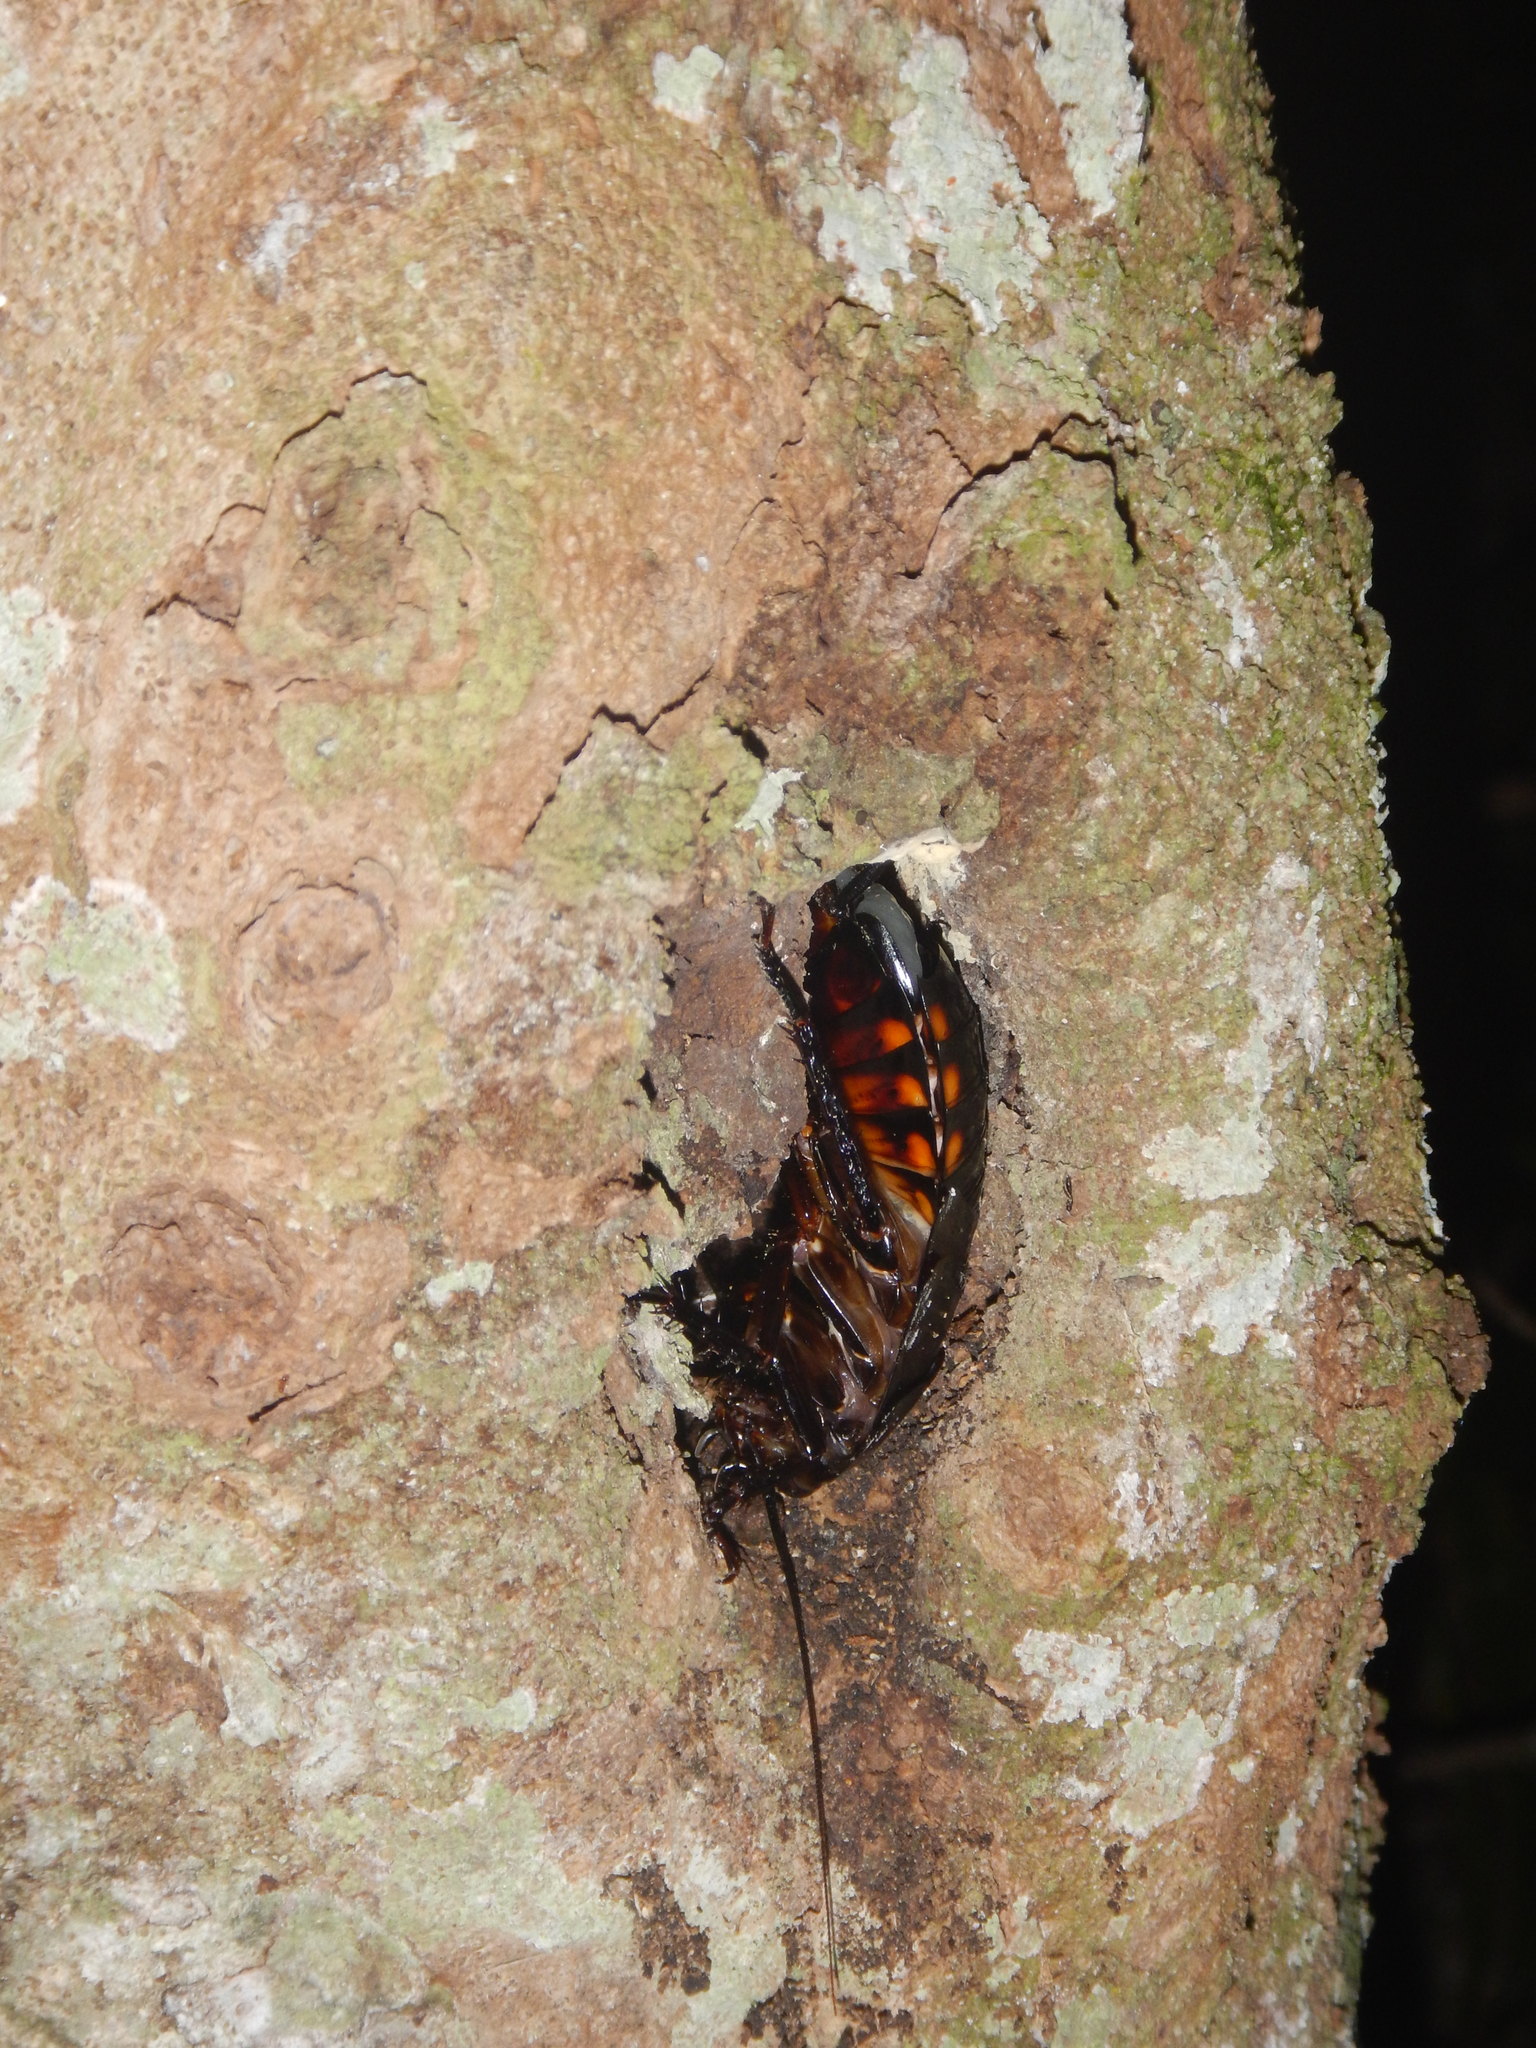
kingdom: Animalia
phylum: Arthropoda
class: Insecta
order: Blattodea
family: Ectobiidae
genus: Megaloblatta
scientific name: Megaloblatta blaberoides
